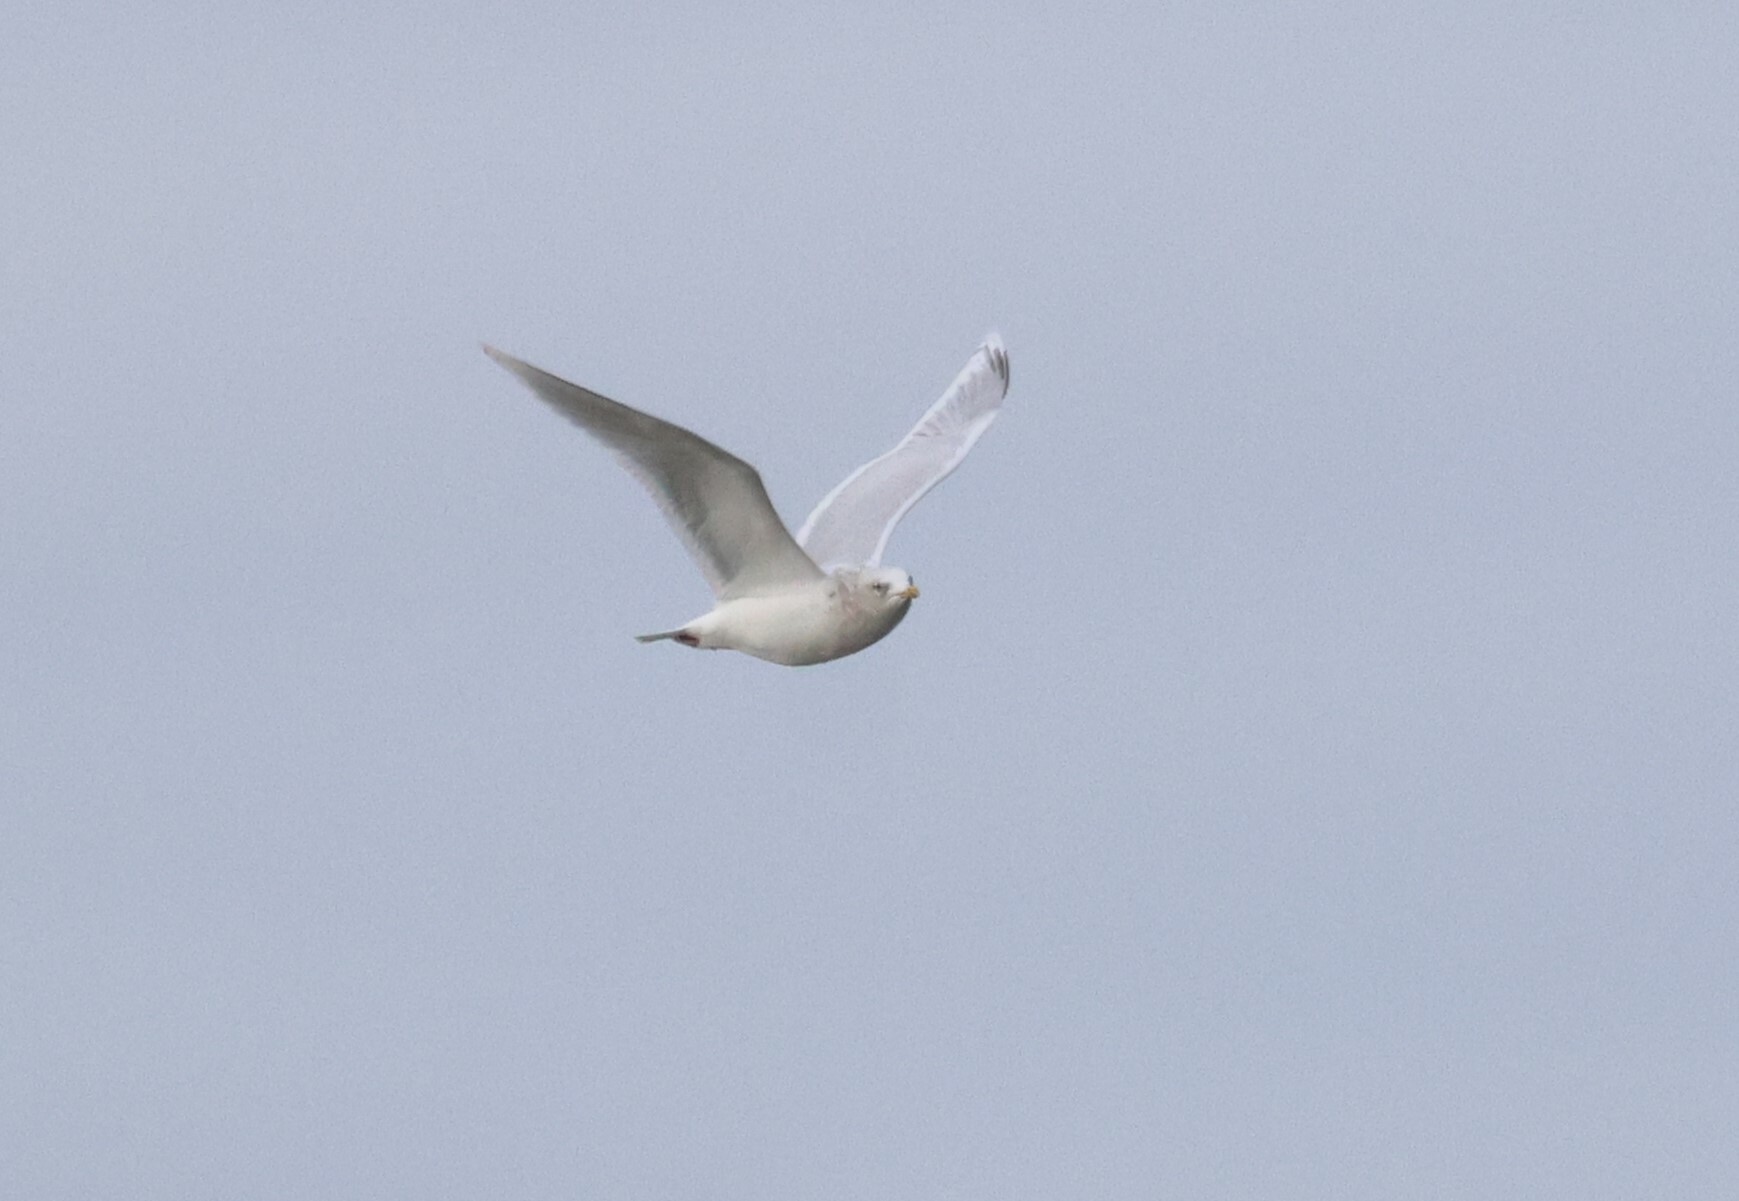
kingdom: Animalia
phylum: Chordata
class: Aves
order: Charadriiformes
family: Laridae
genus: Larus
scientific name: Larus glaucoides
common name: Iceland gull
